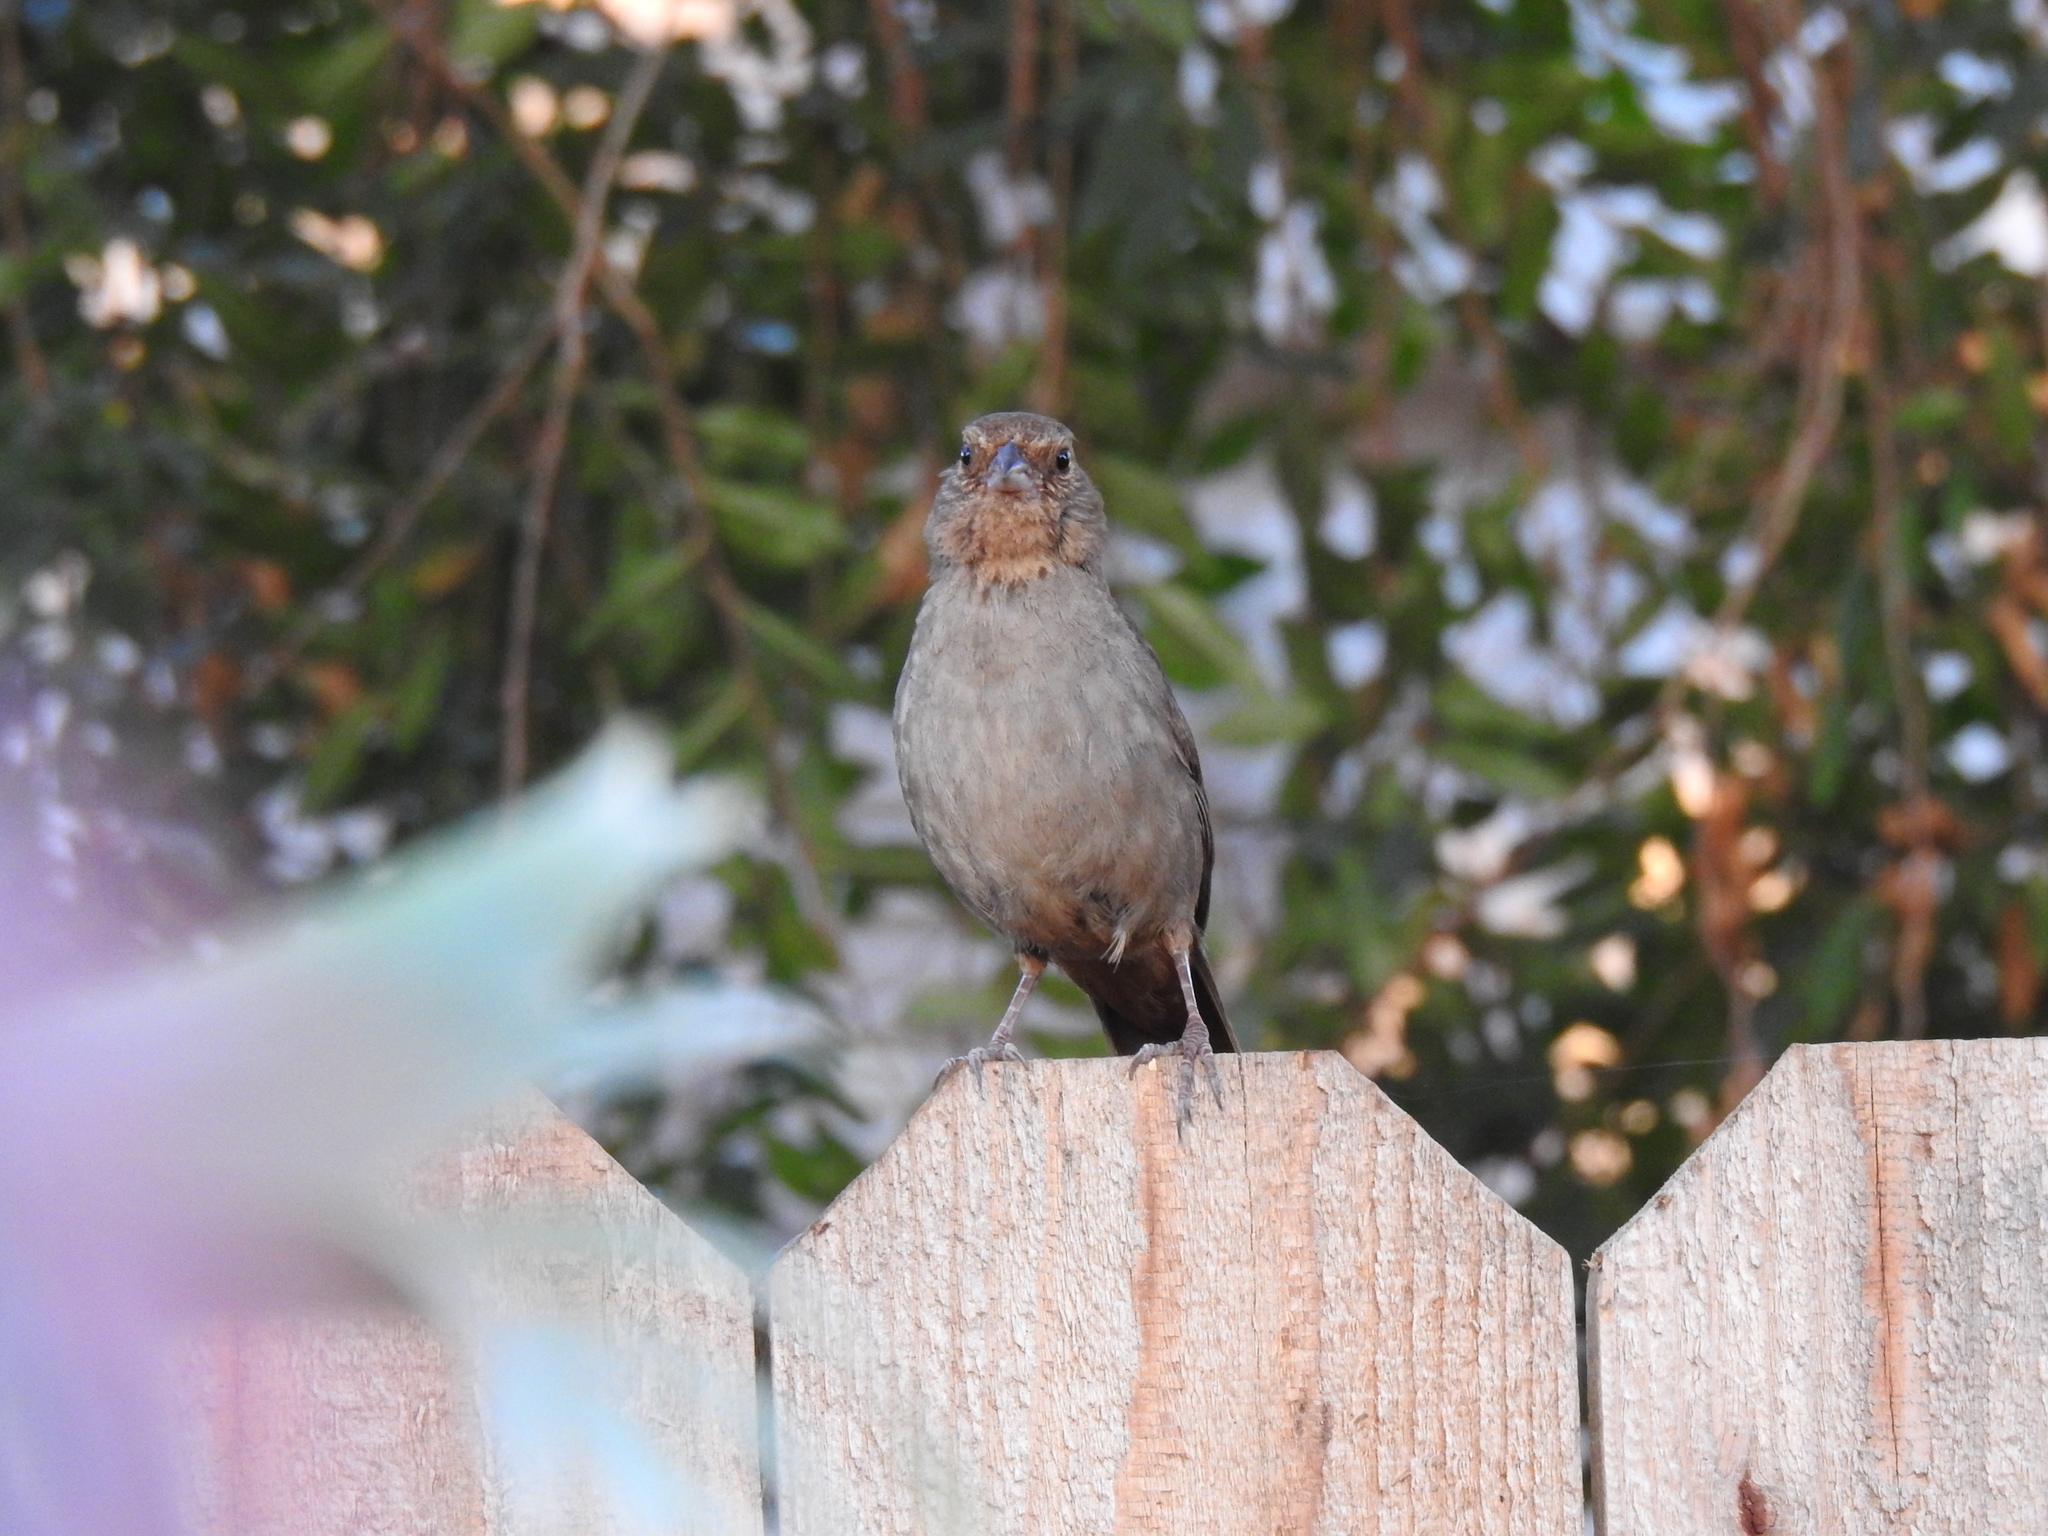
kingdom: Animalia
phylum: Chordata
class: Aves
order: Passeriformes
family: Passerellidae
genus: Melozone
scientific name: Melozone crissalis
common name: California towhee
